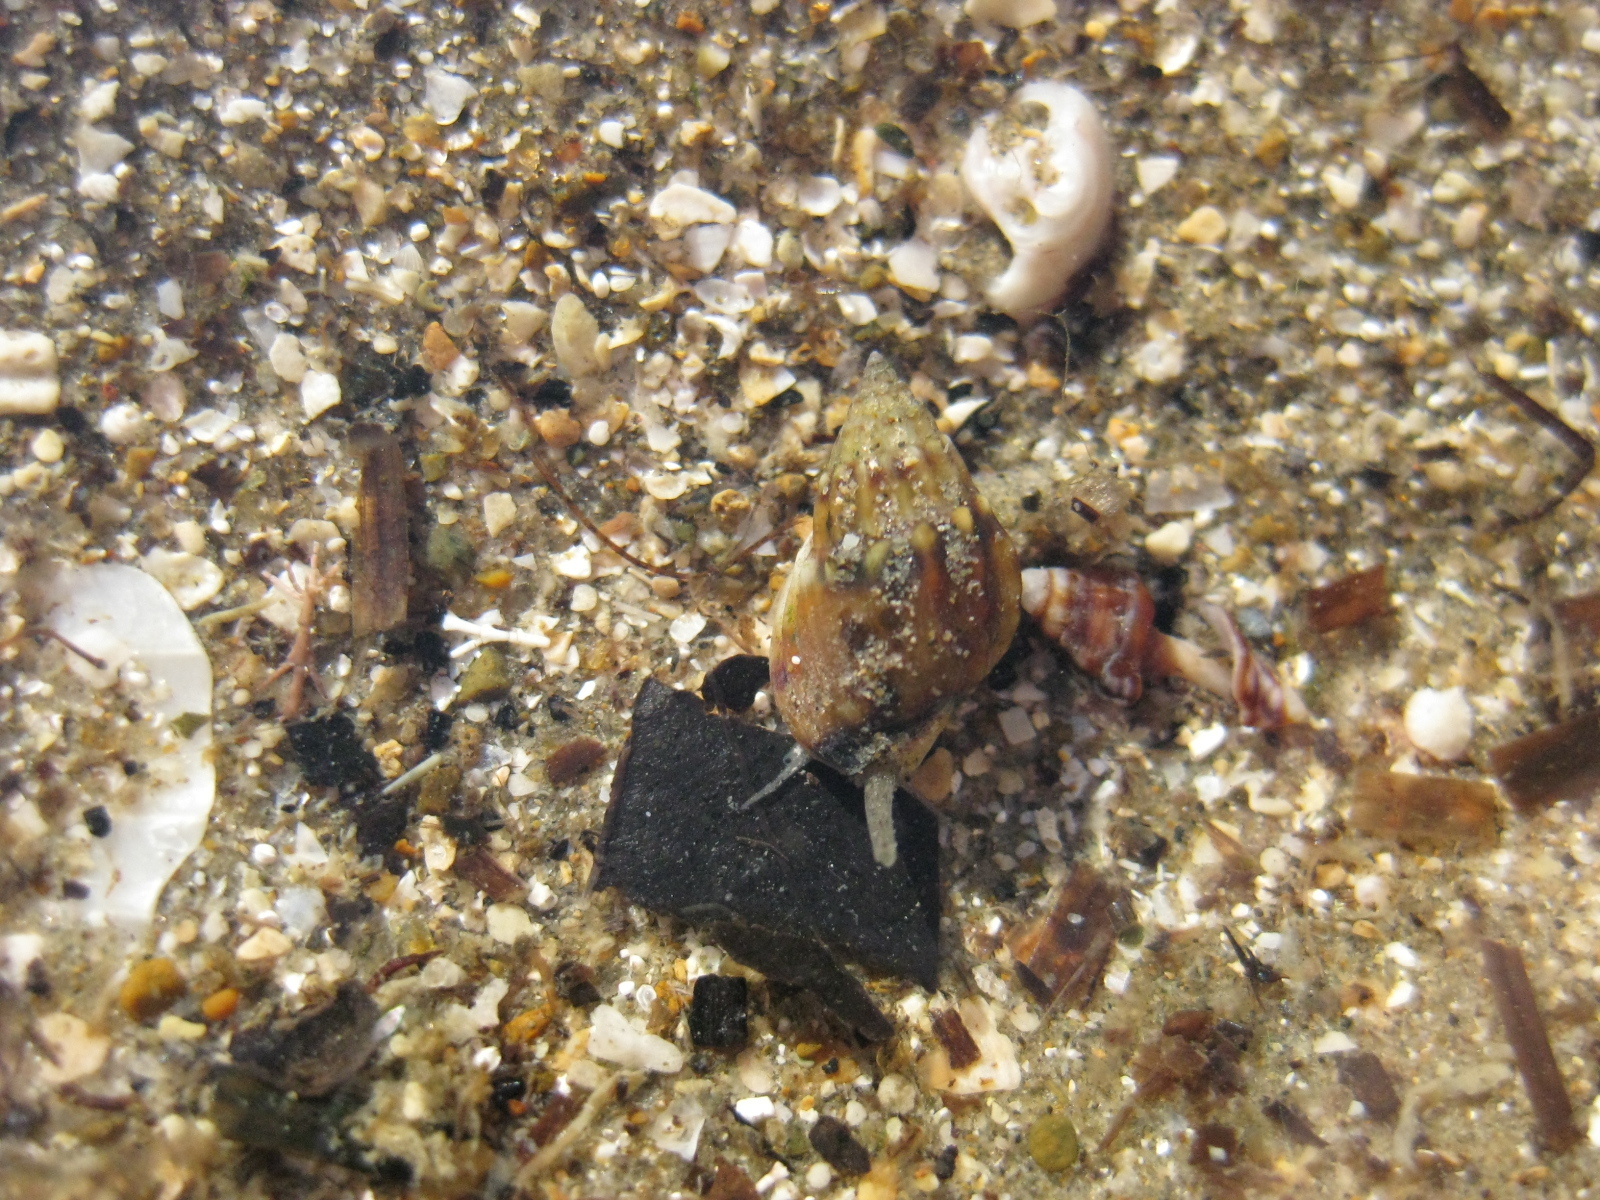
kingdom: Animalia
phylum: Mollusca
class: Gastropoda
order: Neogastropoda
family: Nassariidae
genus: Tritia
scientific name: Tritia burchardi
